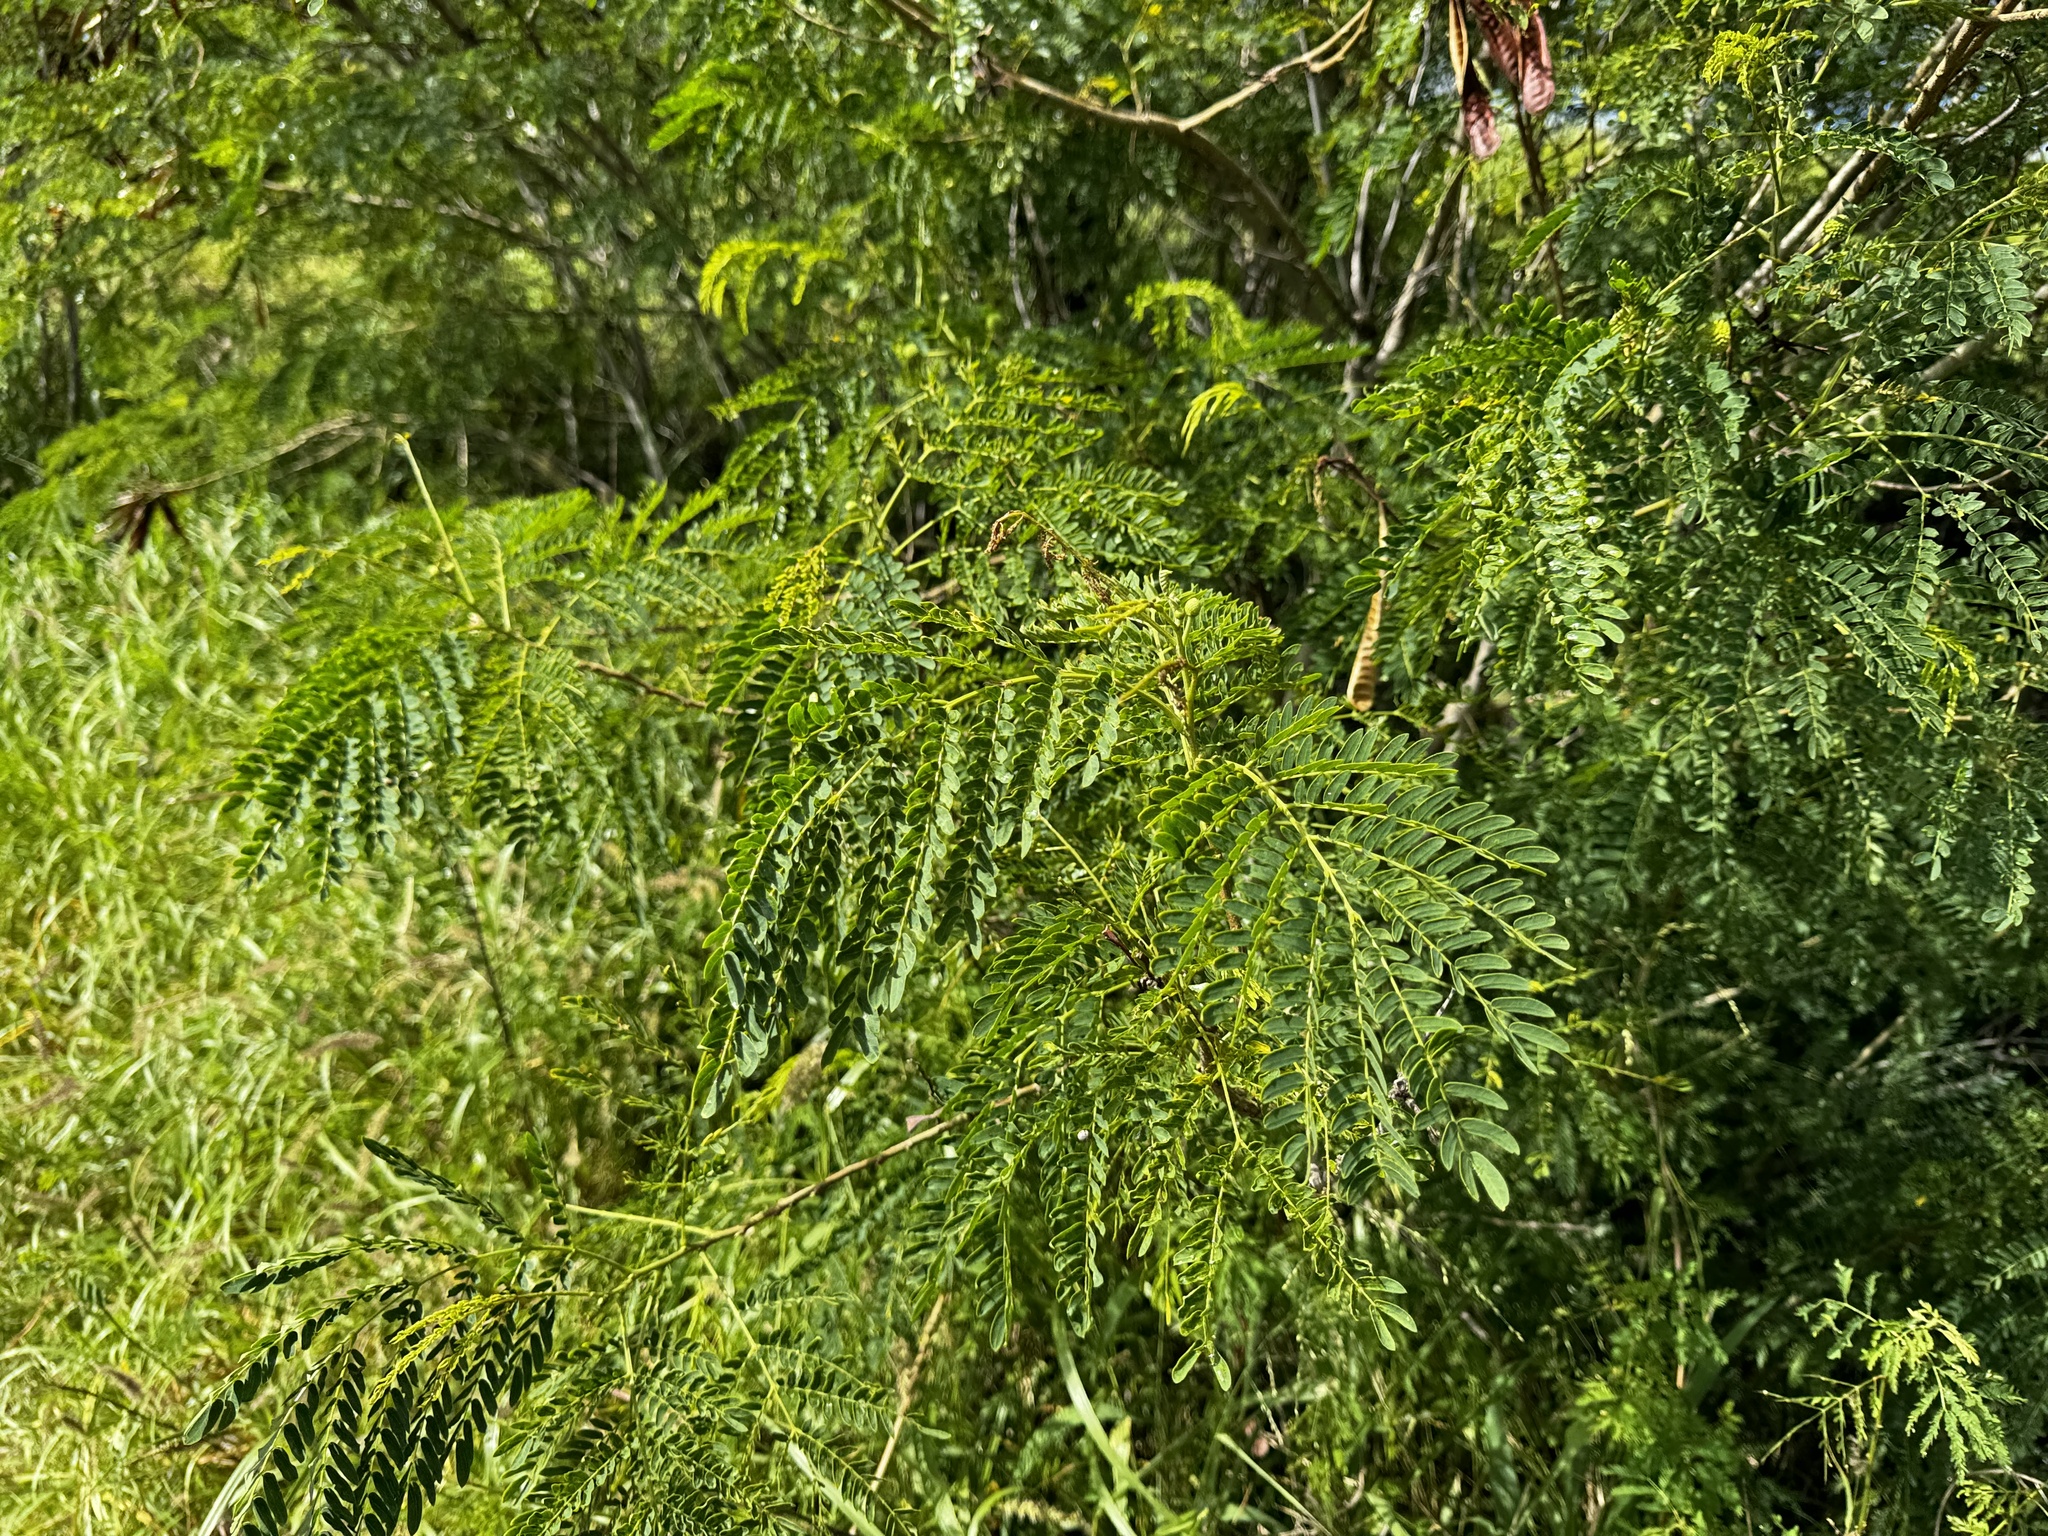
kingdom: Plantae
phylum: Tracheophyta
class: Magnoliopsida
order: Fabales
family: Fabaceae
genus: Leucaena
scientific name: Leucaena leucocephala
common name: White leadtree
